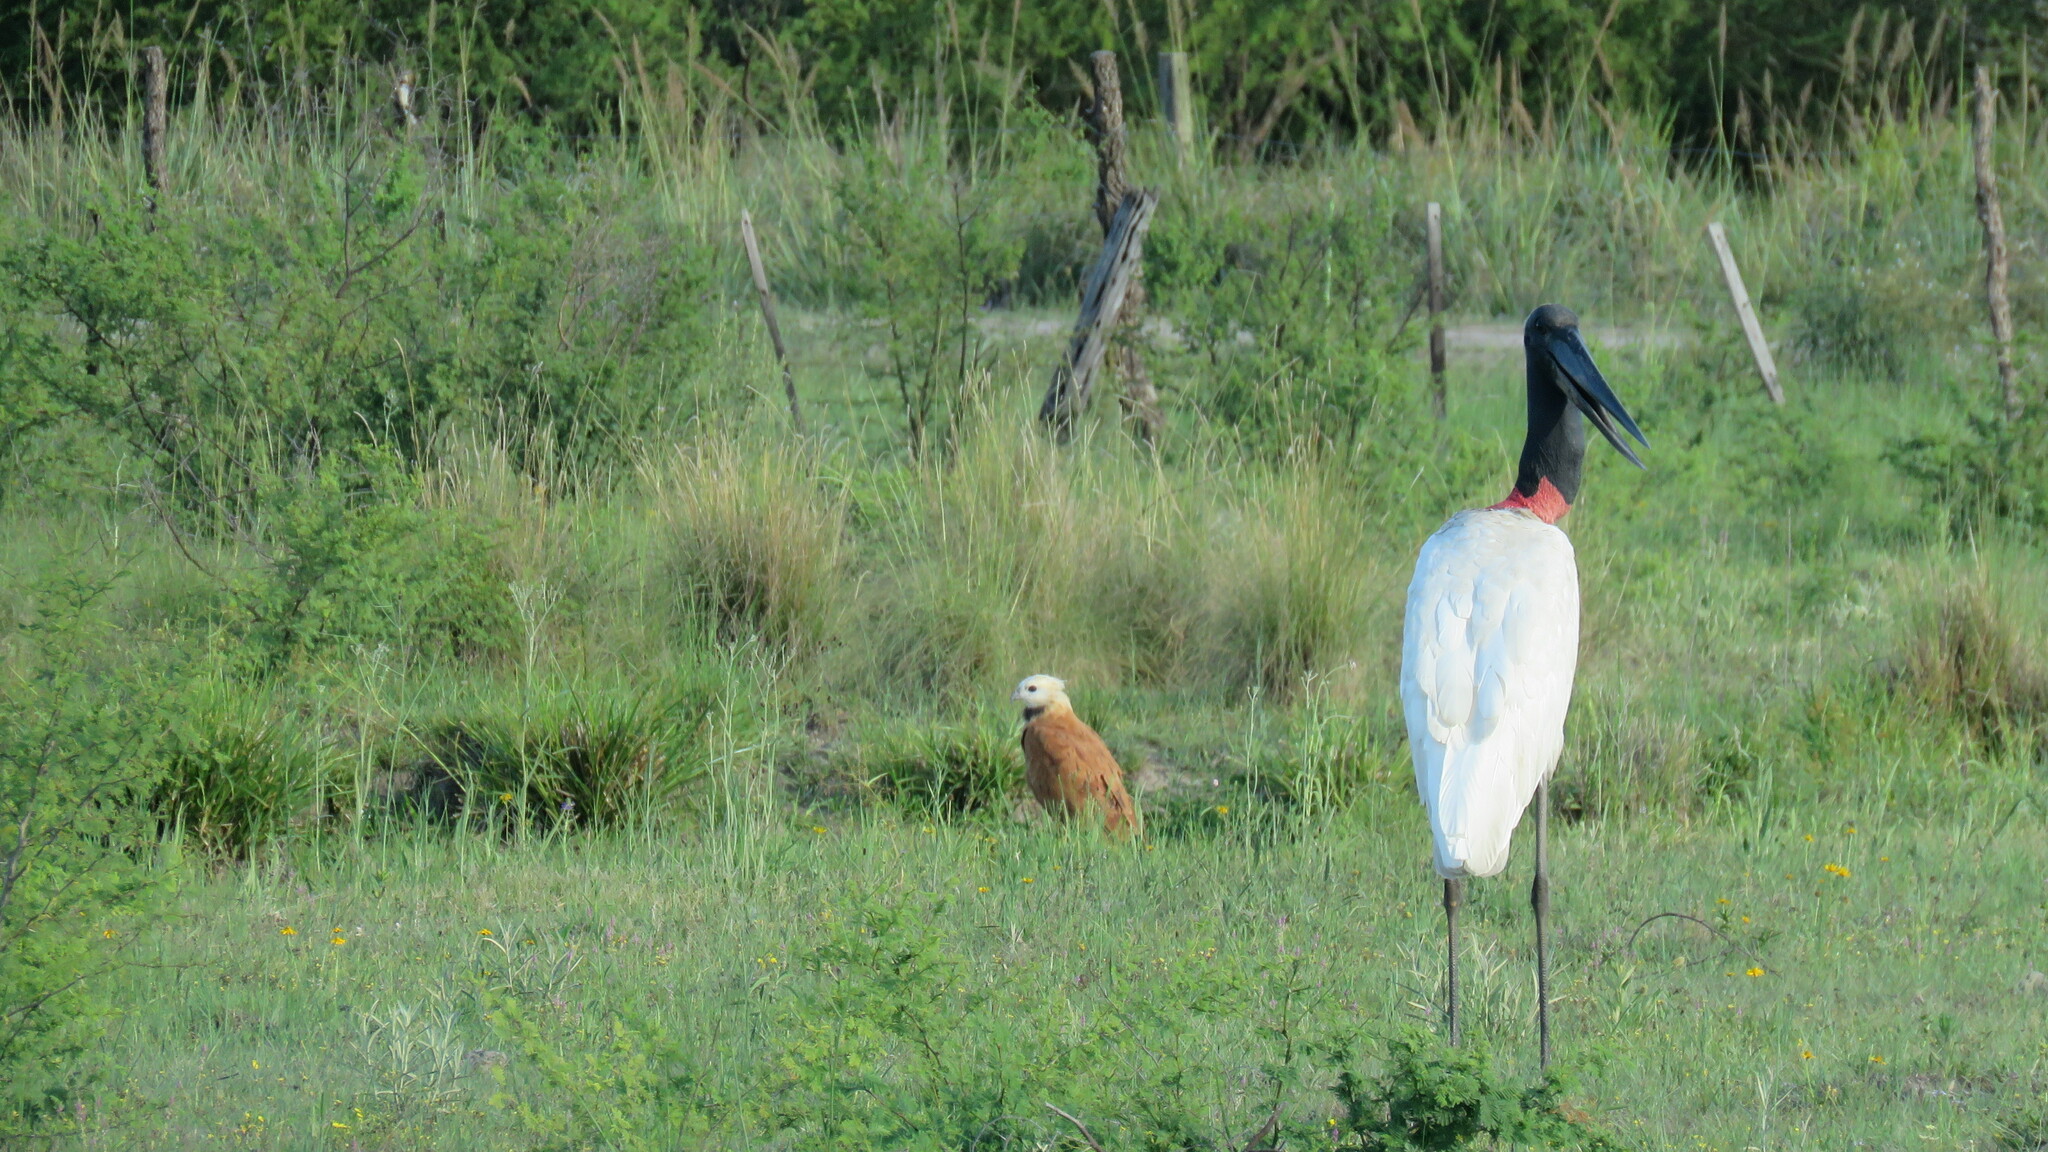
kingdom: Animalia
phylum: Chordata
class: Aves
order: Accipitriformes
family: Accipitridae
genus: Busarellus
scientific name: Busarellus nigricollis
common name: Black-collared hawk
